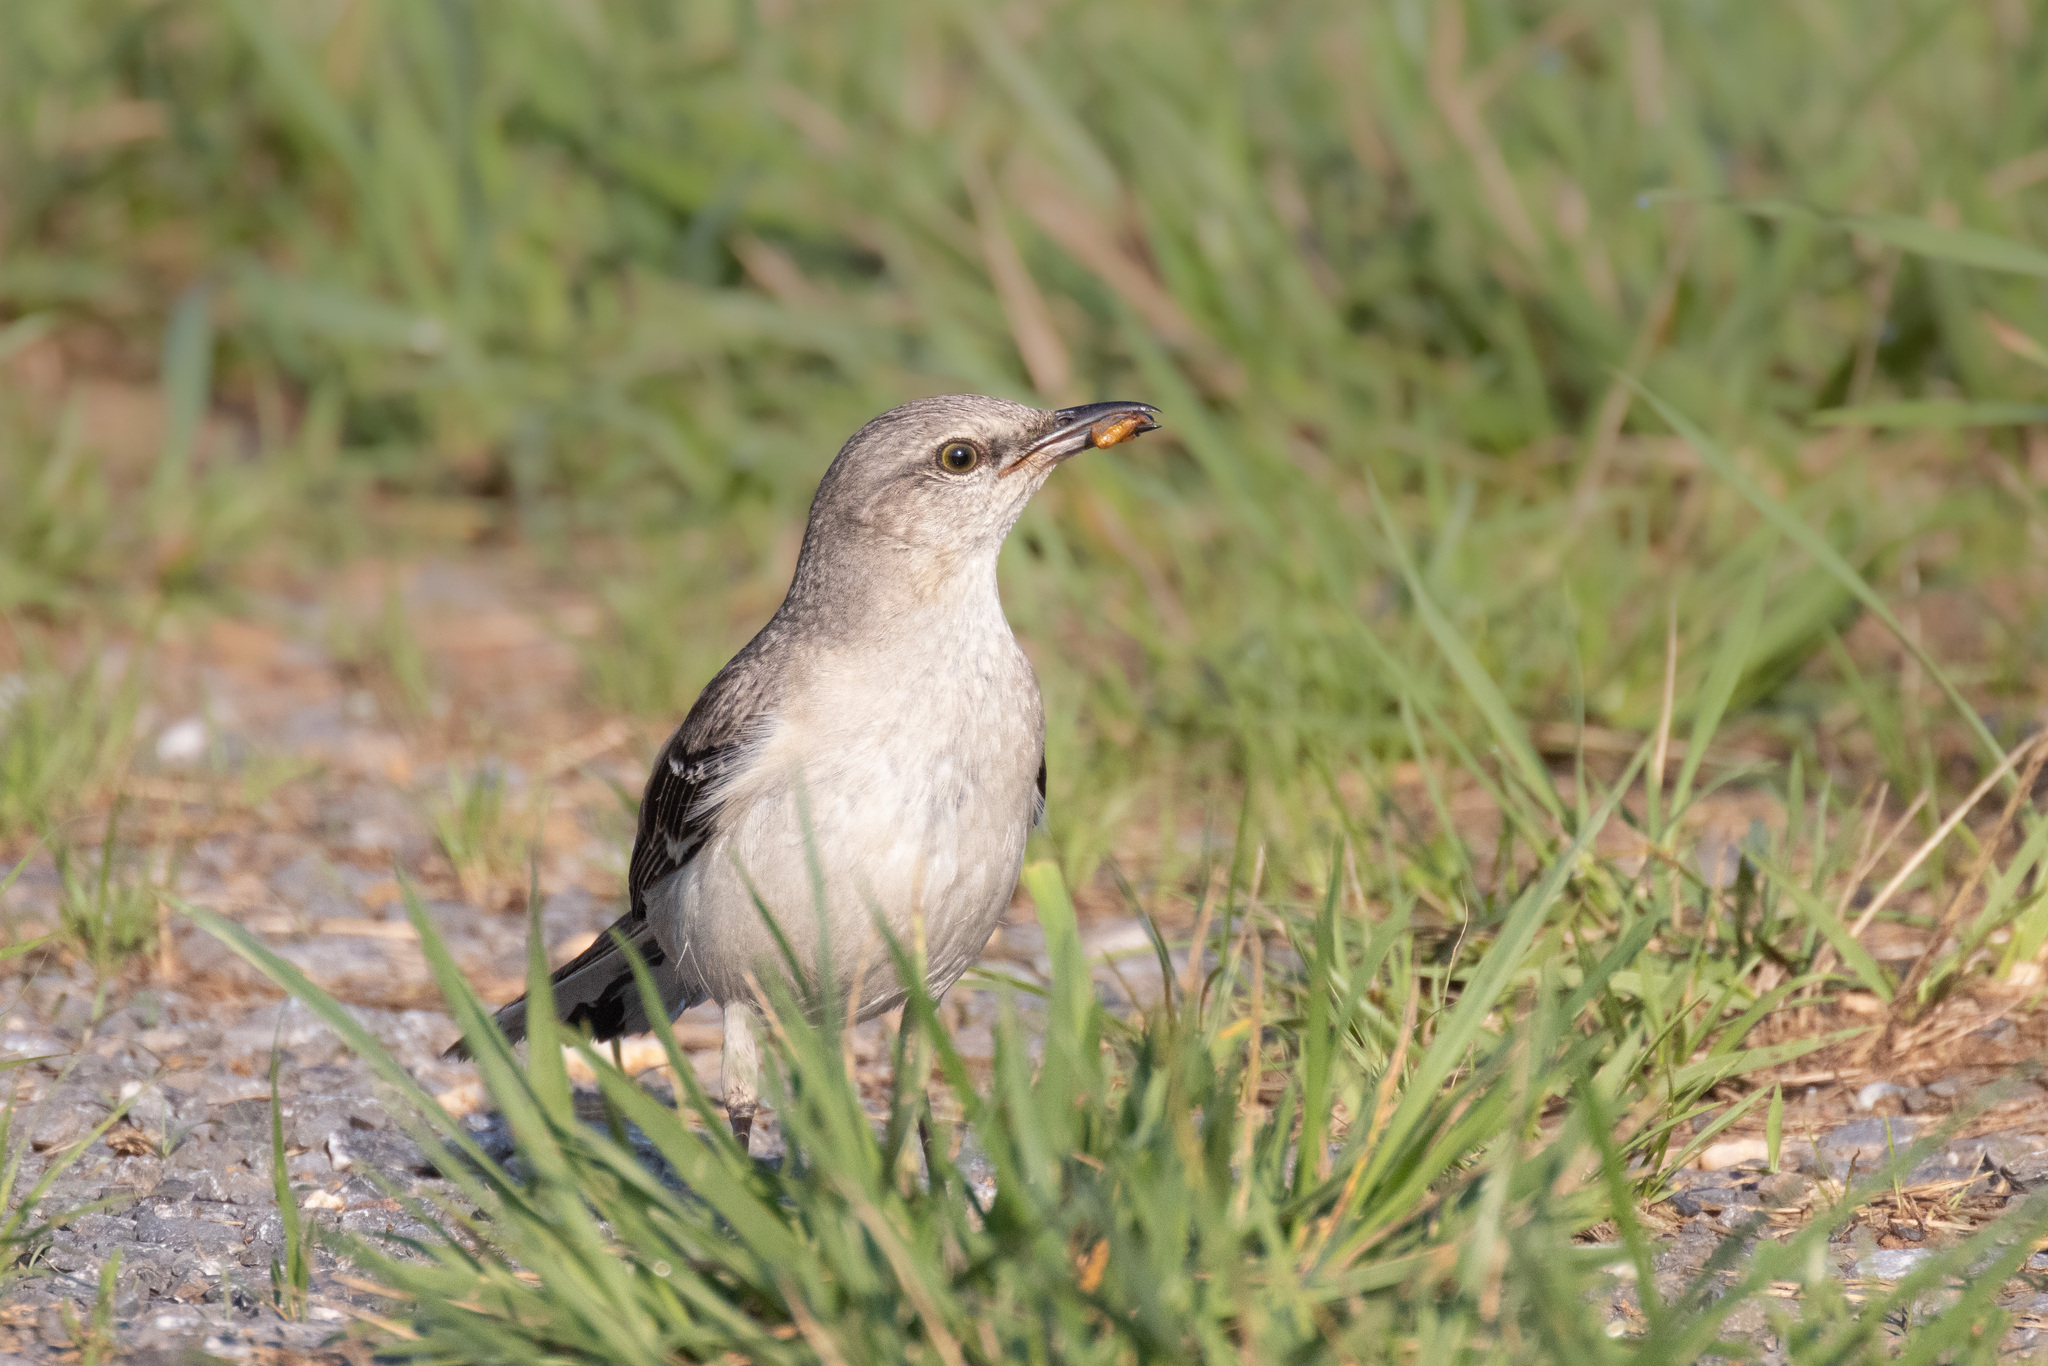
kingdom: Animalia
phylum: Chordata
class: Aves
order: Passeriformes
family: Mimidae
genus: Mimus
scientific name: Mimus polyglottos
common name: Northern mockingbird
